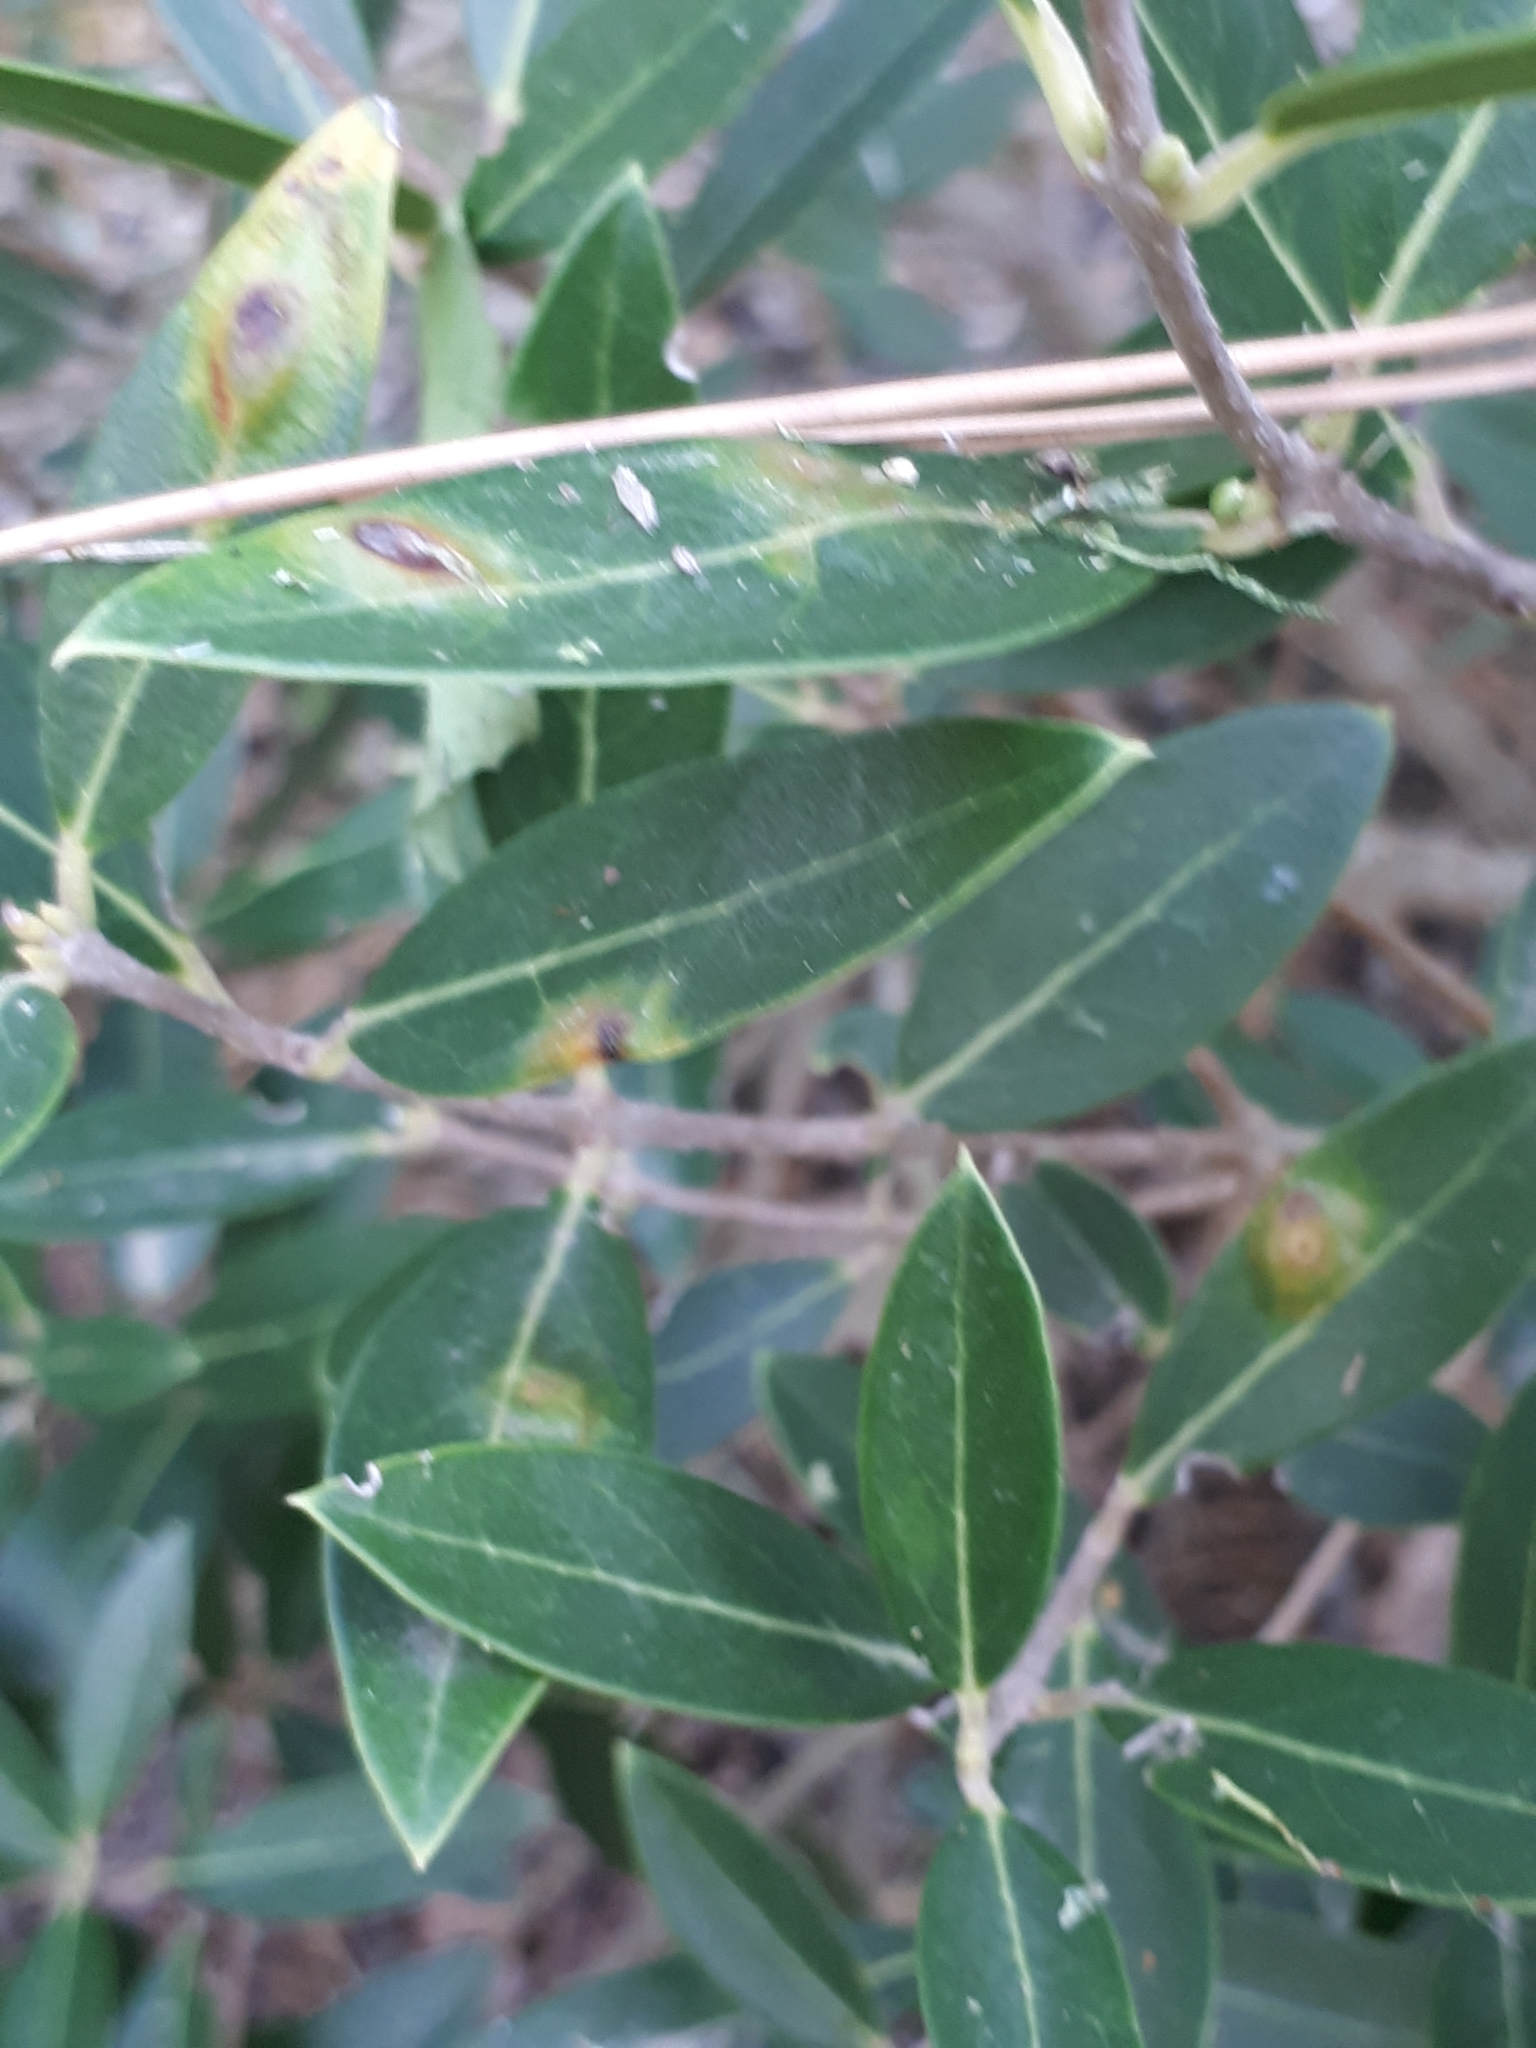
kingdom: Animalia
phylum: Arthropoda
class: Insecta
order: Diptera
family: Cecidomyiidae
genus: Braueriella
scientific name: Braueriella phillyreae
